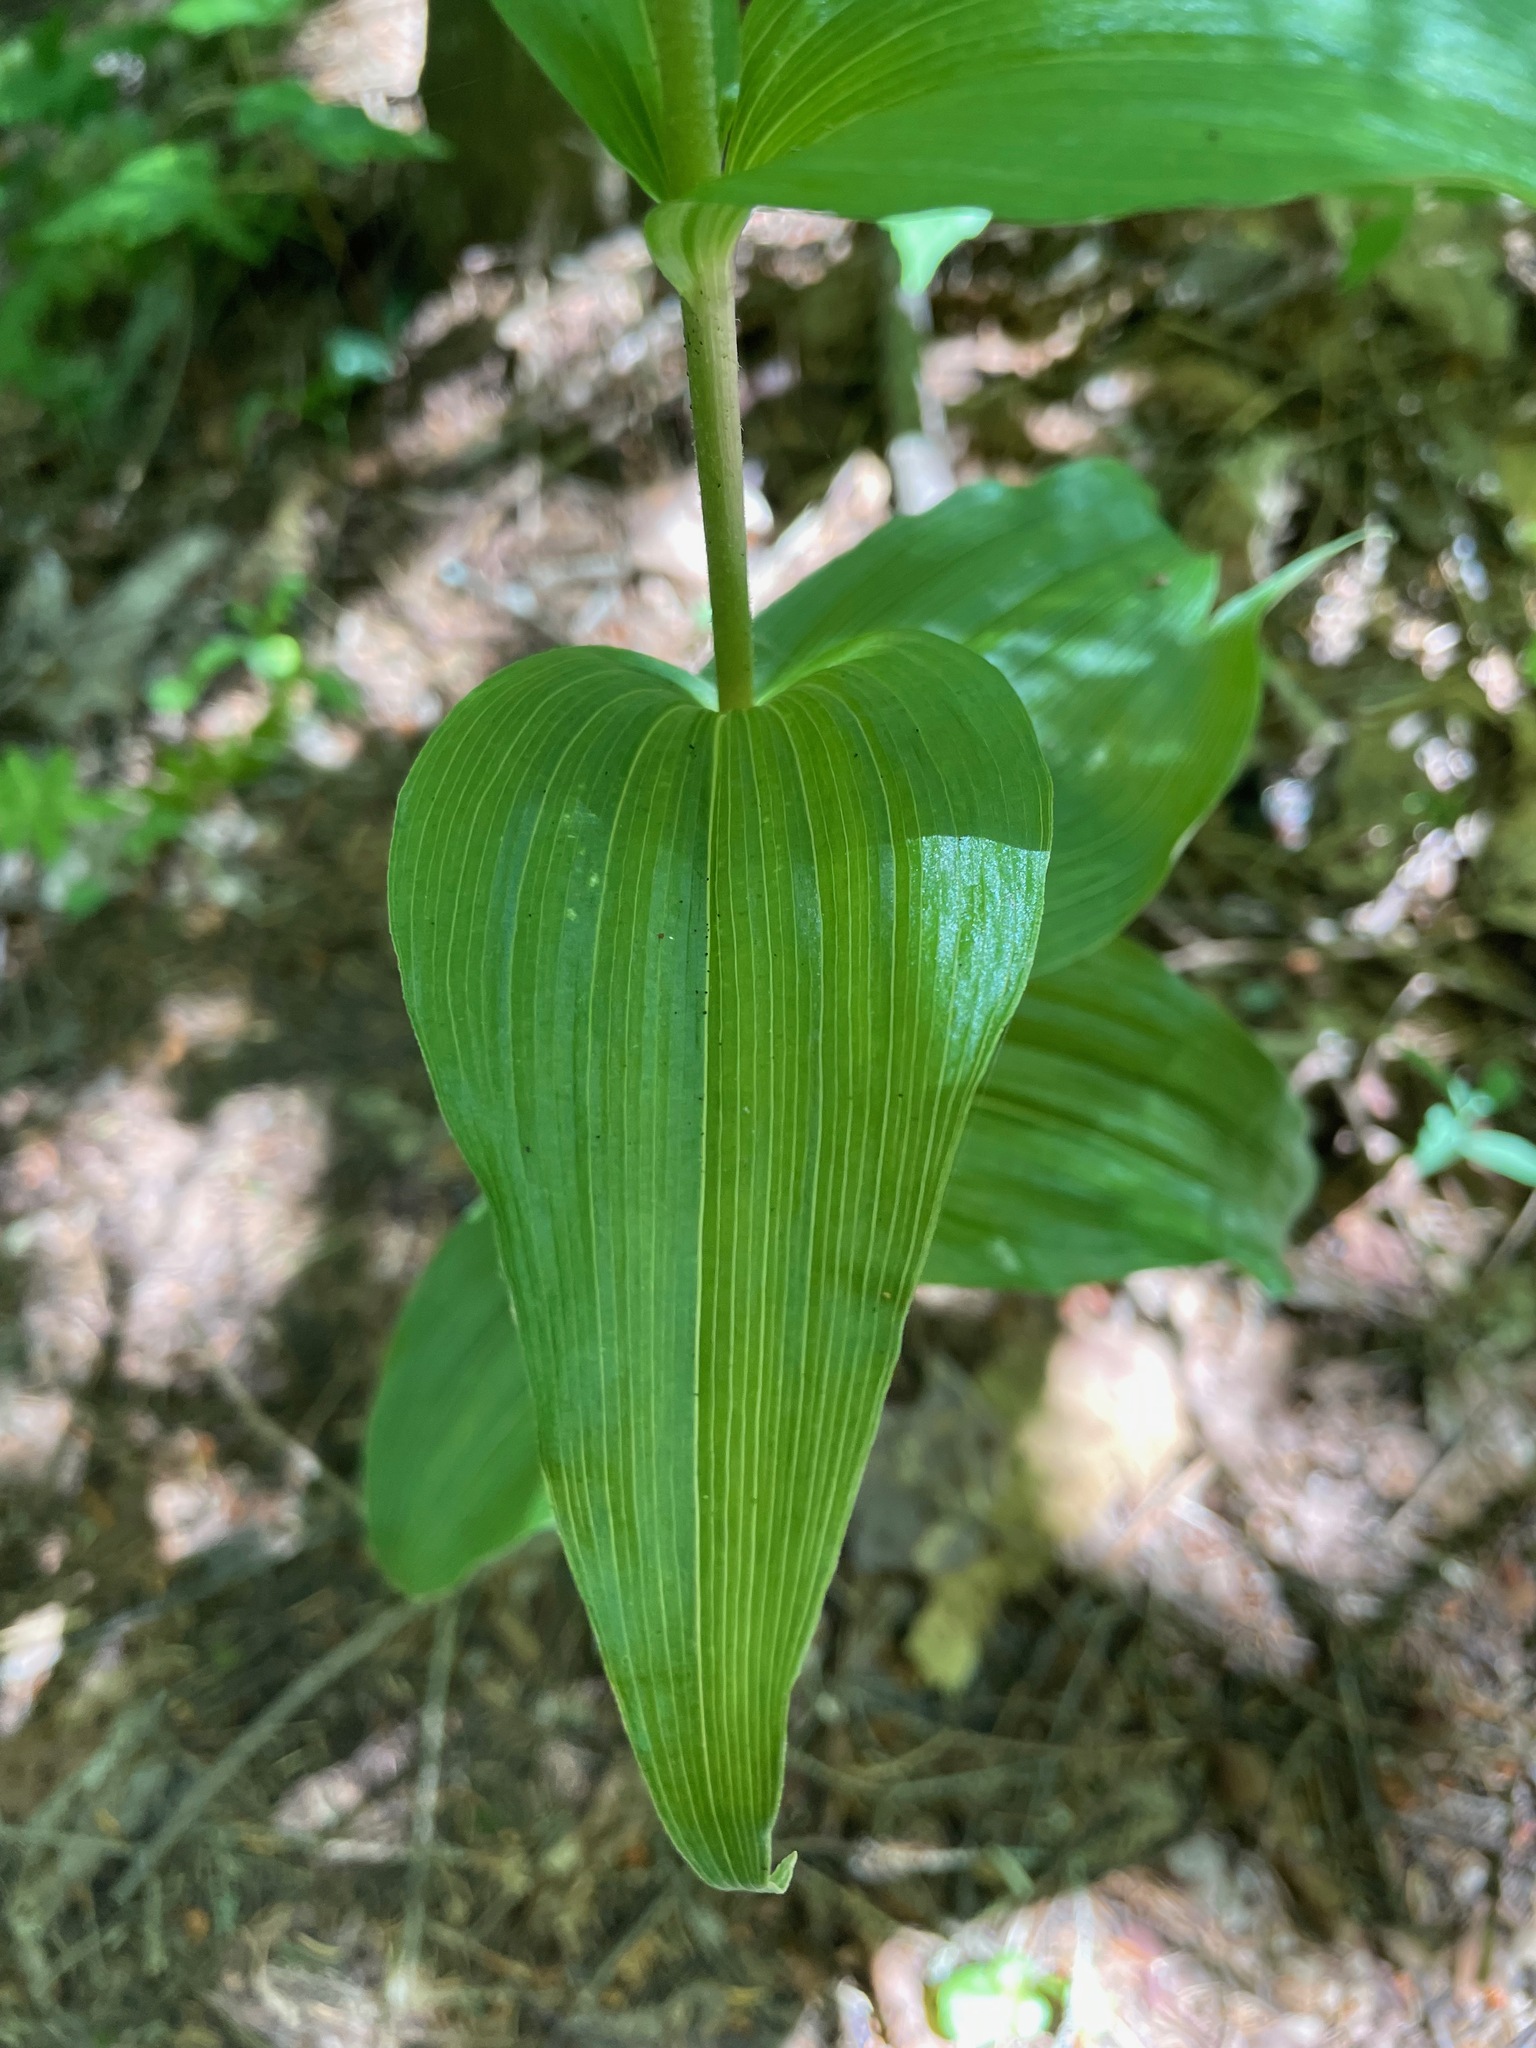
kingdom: Plantae
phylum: Tracheophyta
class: Liliopsida
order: Asparagales
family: Orchidaceae
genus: Epipactis
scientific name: Epipactis helleborine
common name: Broad-leaved helleborine
